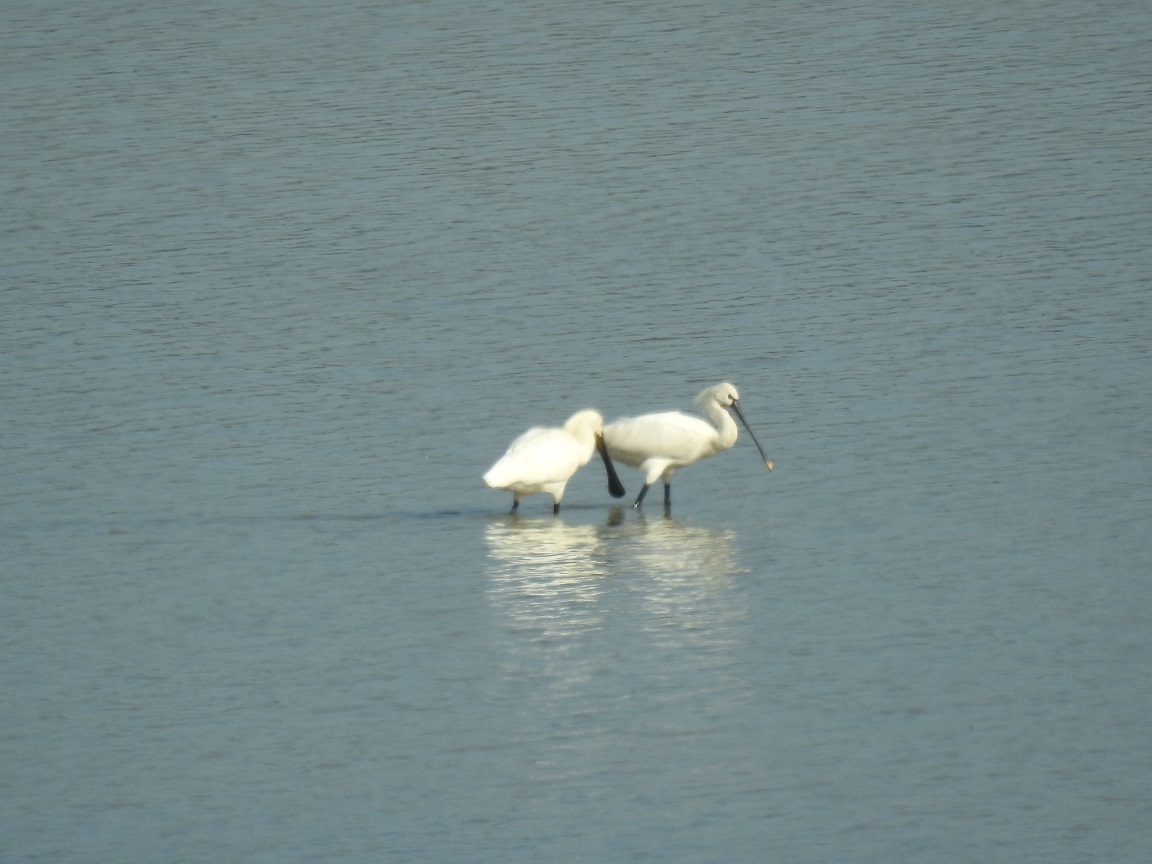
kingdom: Animalia
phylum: Chordata
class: Aves
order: Pelecaniformes
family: Threskiornithidae
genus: Platalea
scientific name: Platalea leucorodia
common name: Eurasian spoonbill
